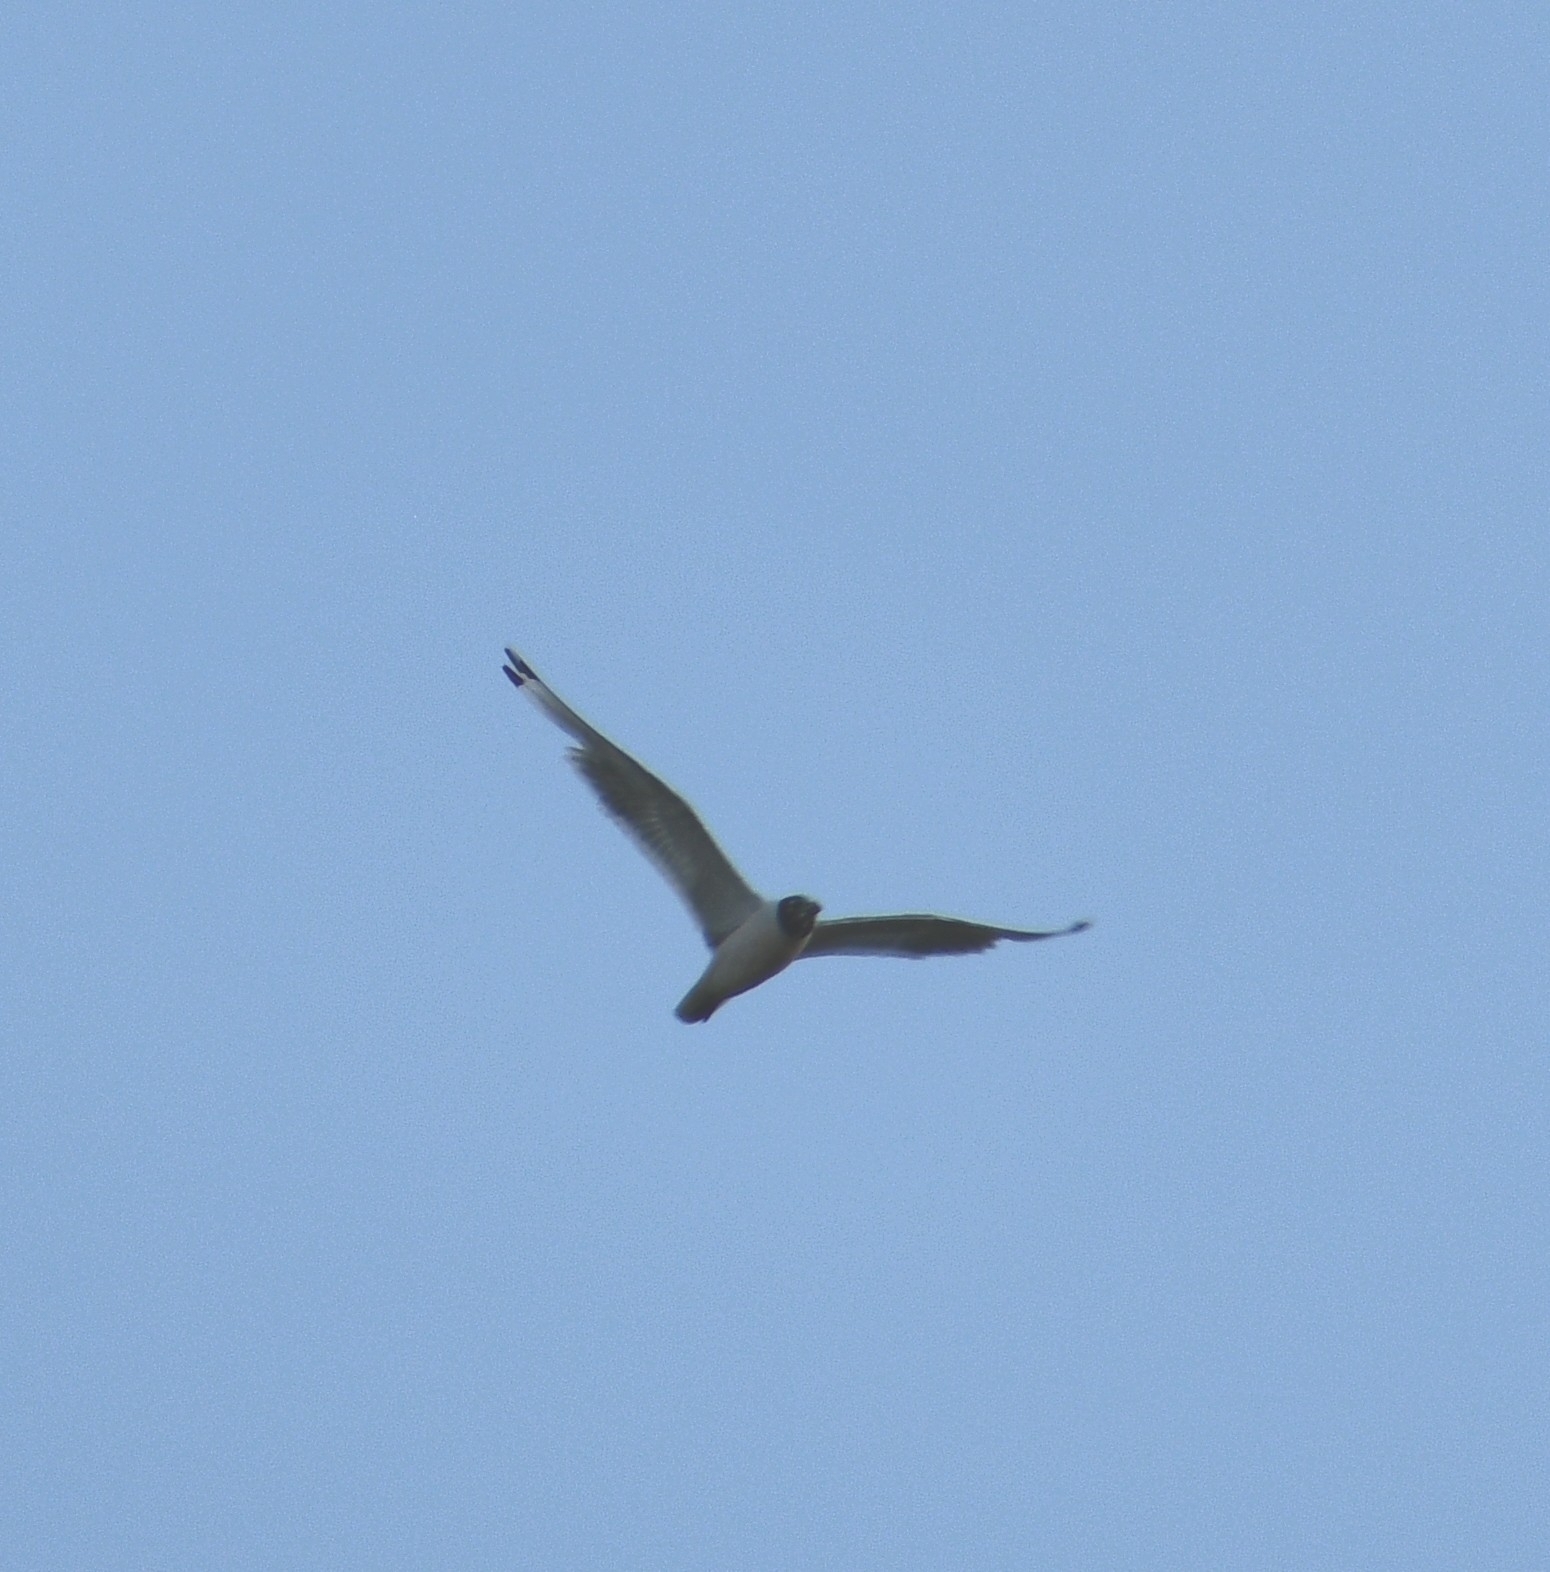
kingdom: Animalia
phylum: Chordata
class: Aves
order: Charadriiformes
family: Laridae
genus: Leucophaeus
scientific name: Leucophaeus pipixcan
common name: Franklin's gull
